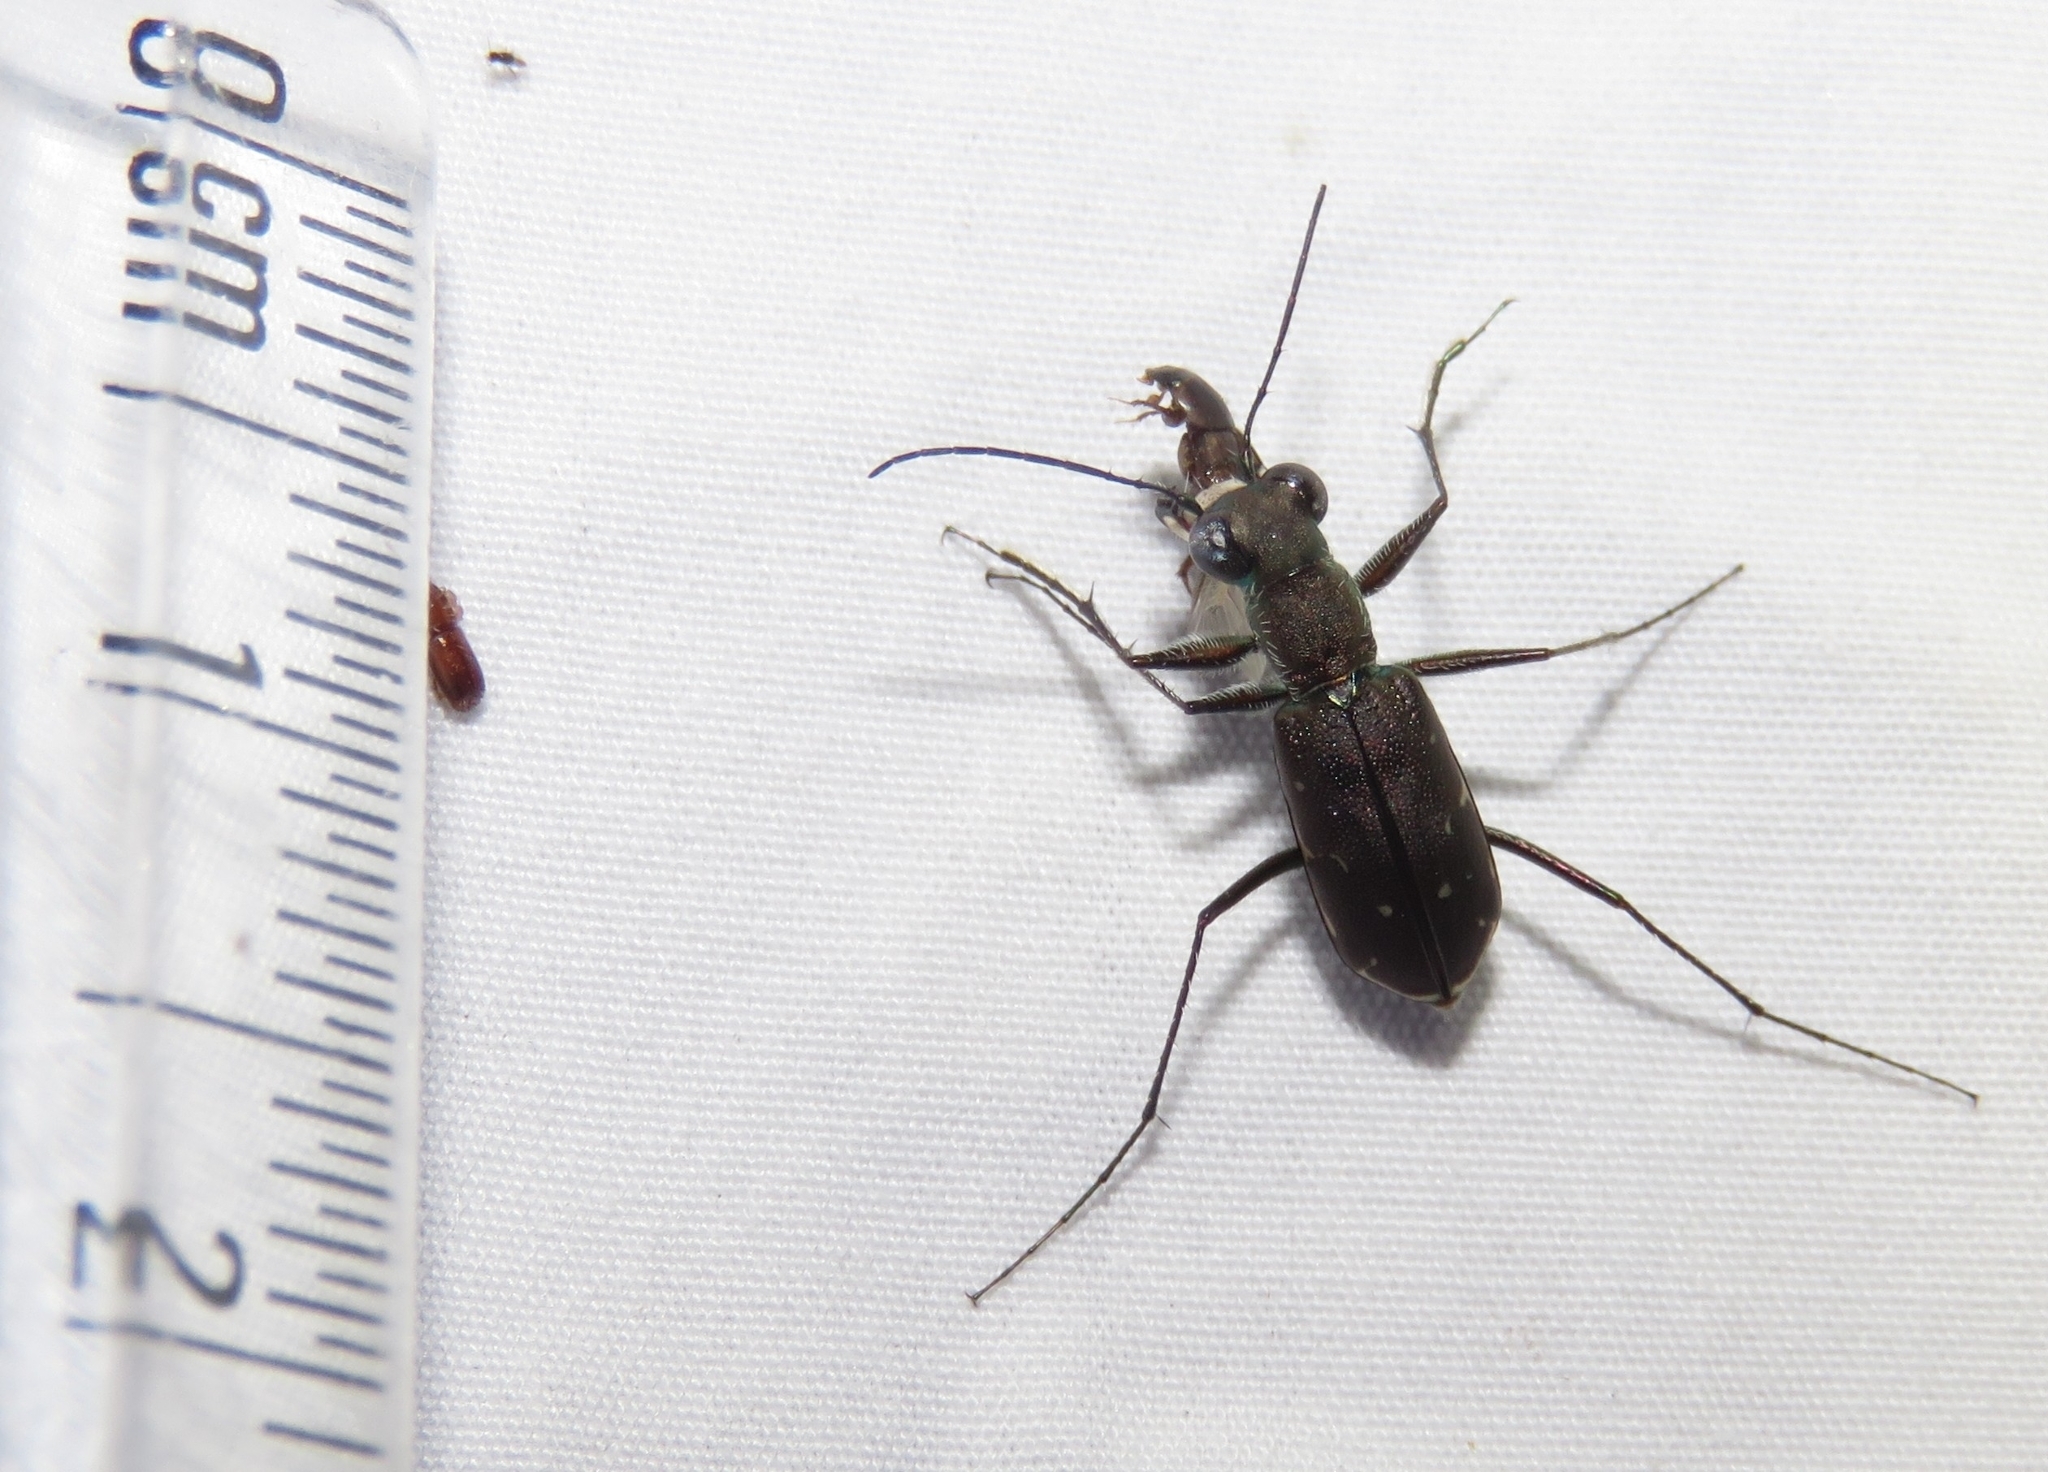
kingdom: Animalia
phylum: Arthropoda
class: Insecta
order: Coleoptera
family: Carabidae
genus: Myriochila
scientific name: Myriochila undulata
